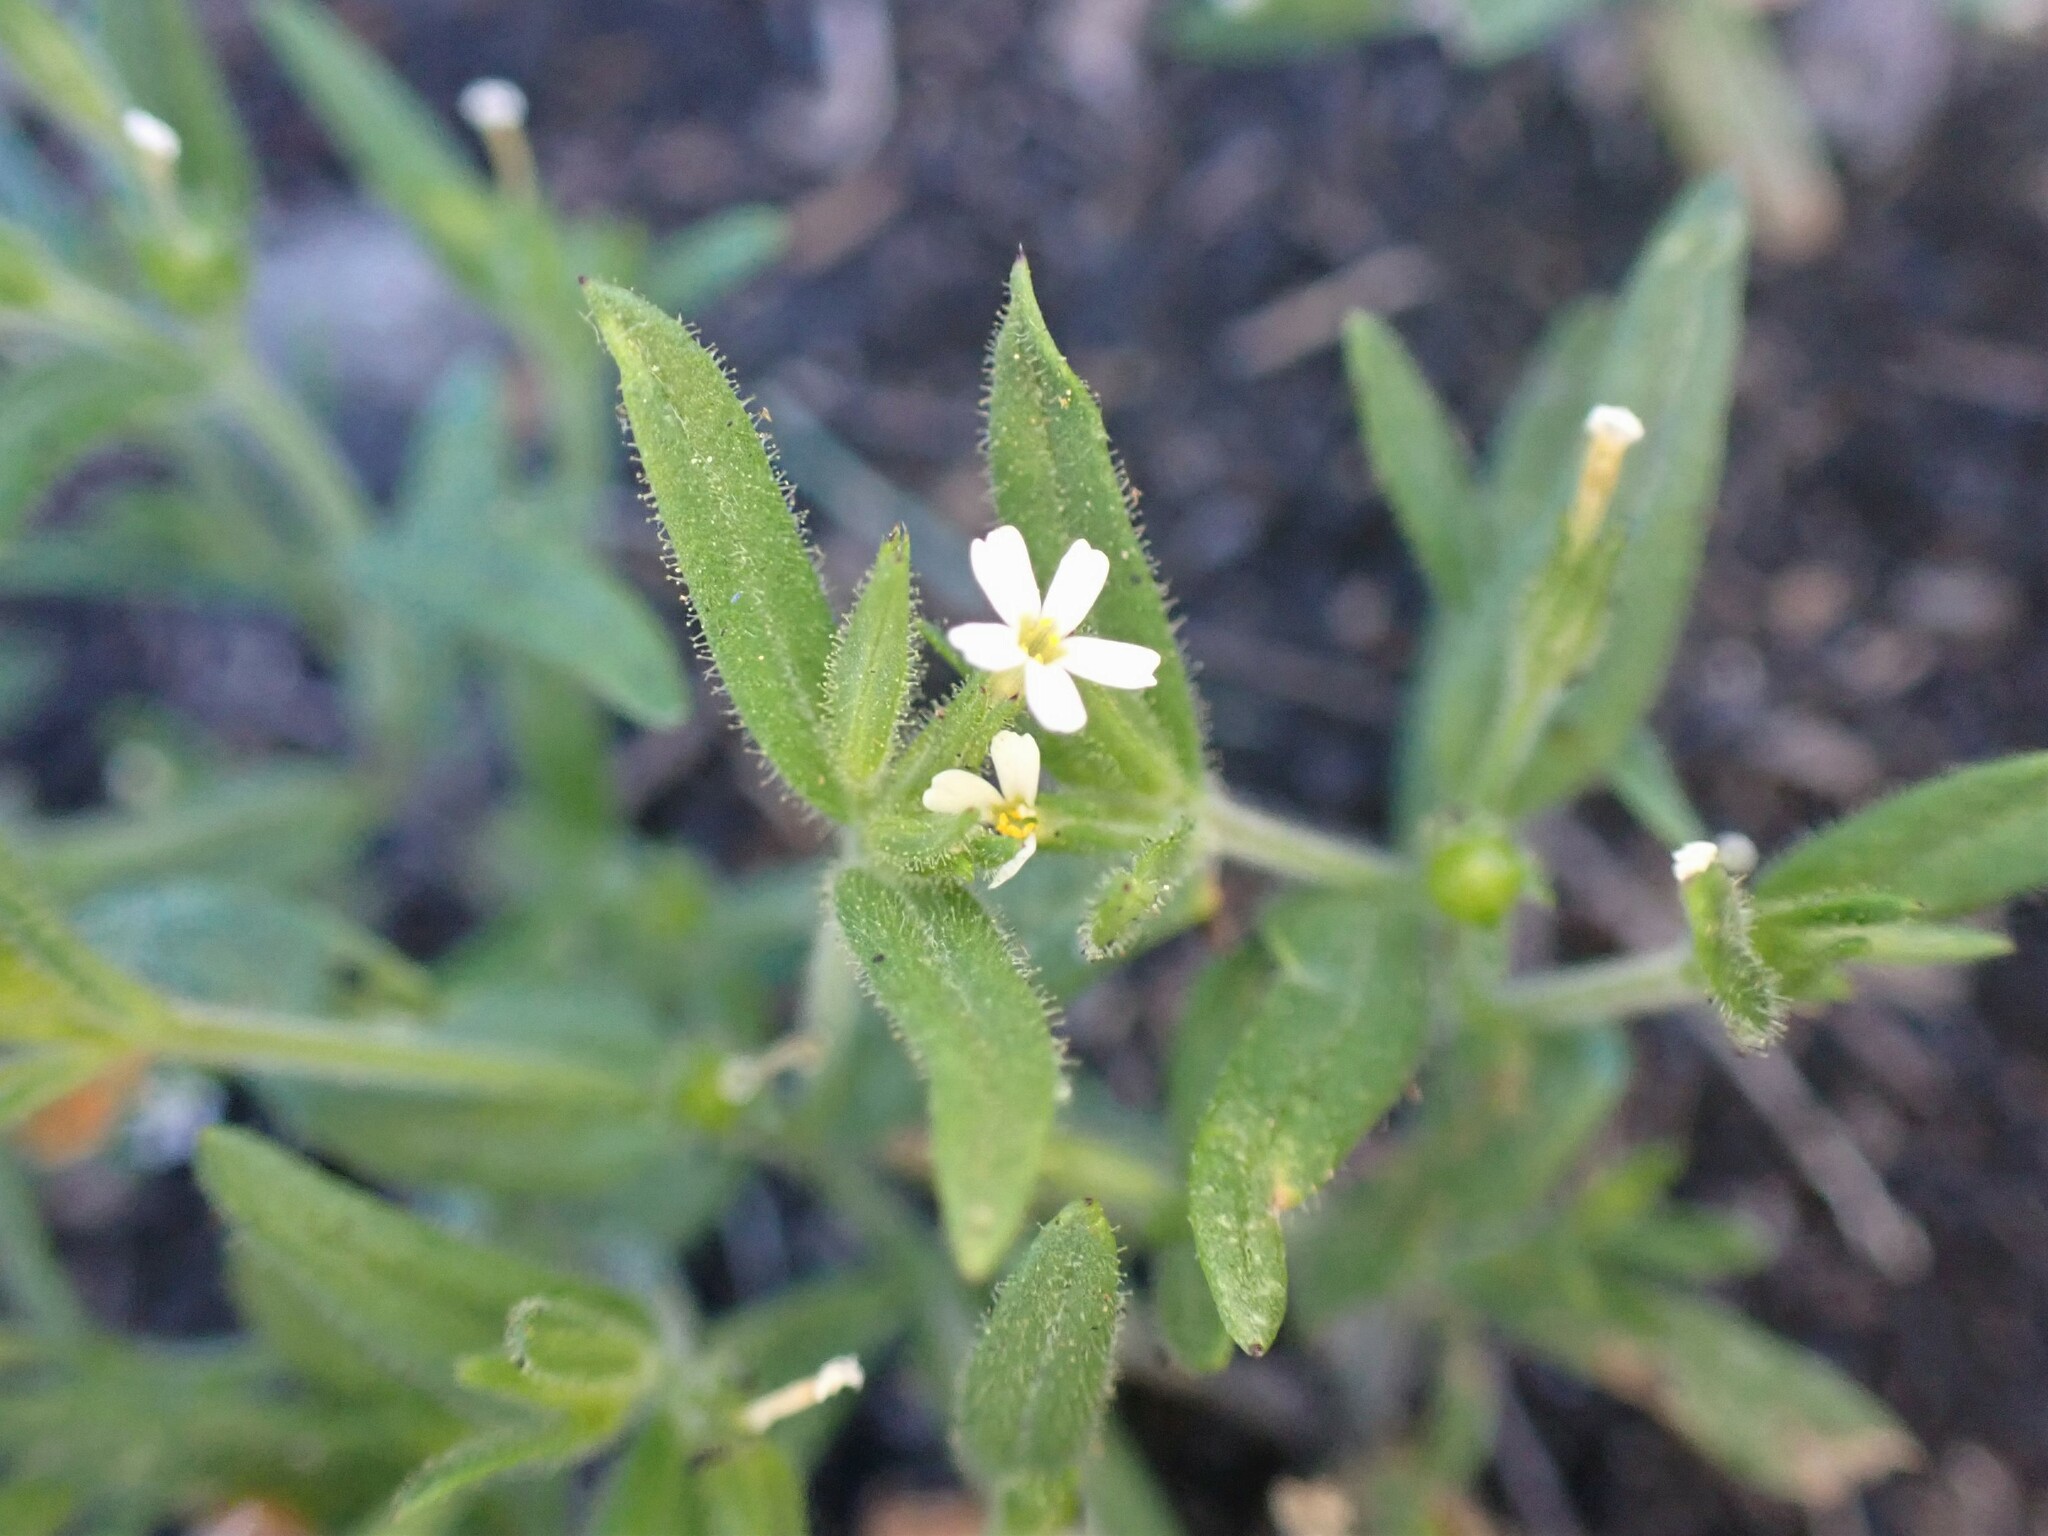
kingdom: Plantae
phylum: Tracheophyta
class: Magnoliopsida
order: Ericales
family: Polemoniaceae
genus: Phlox
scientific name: Phlox gracilis
